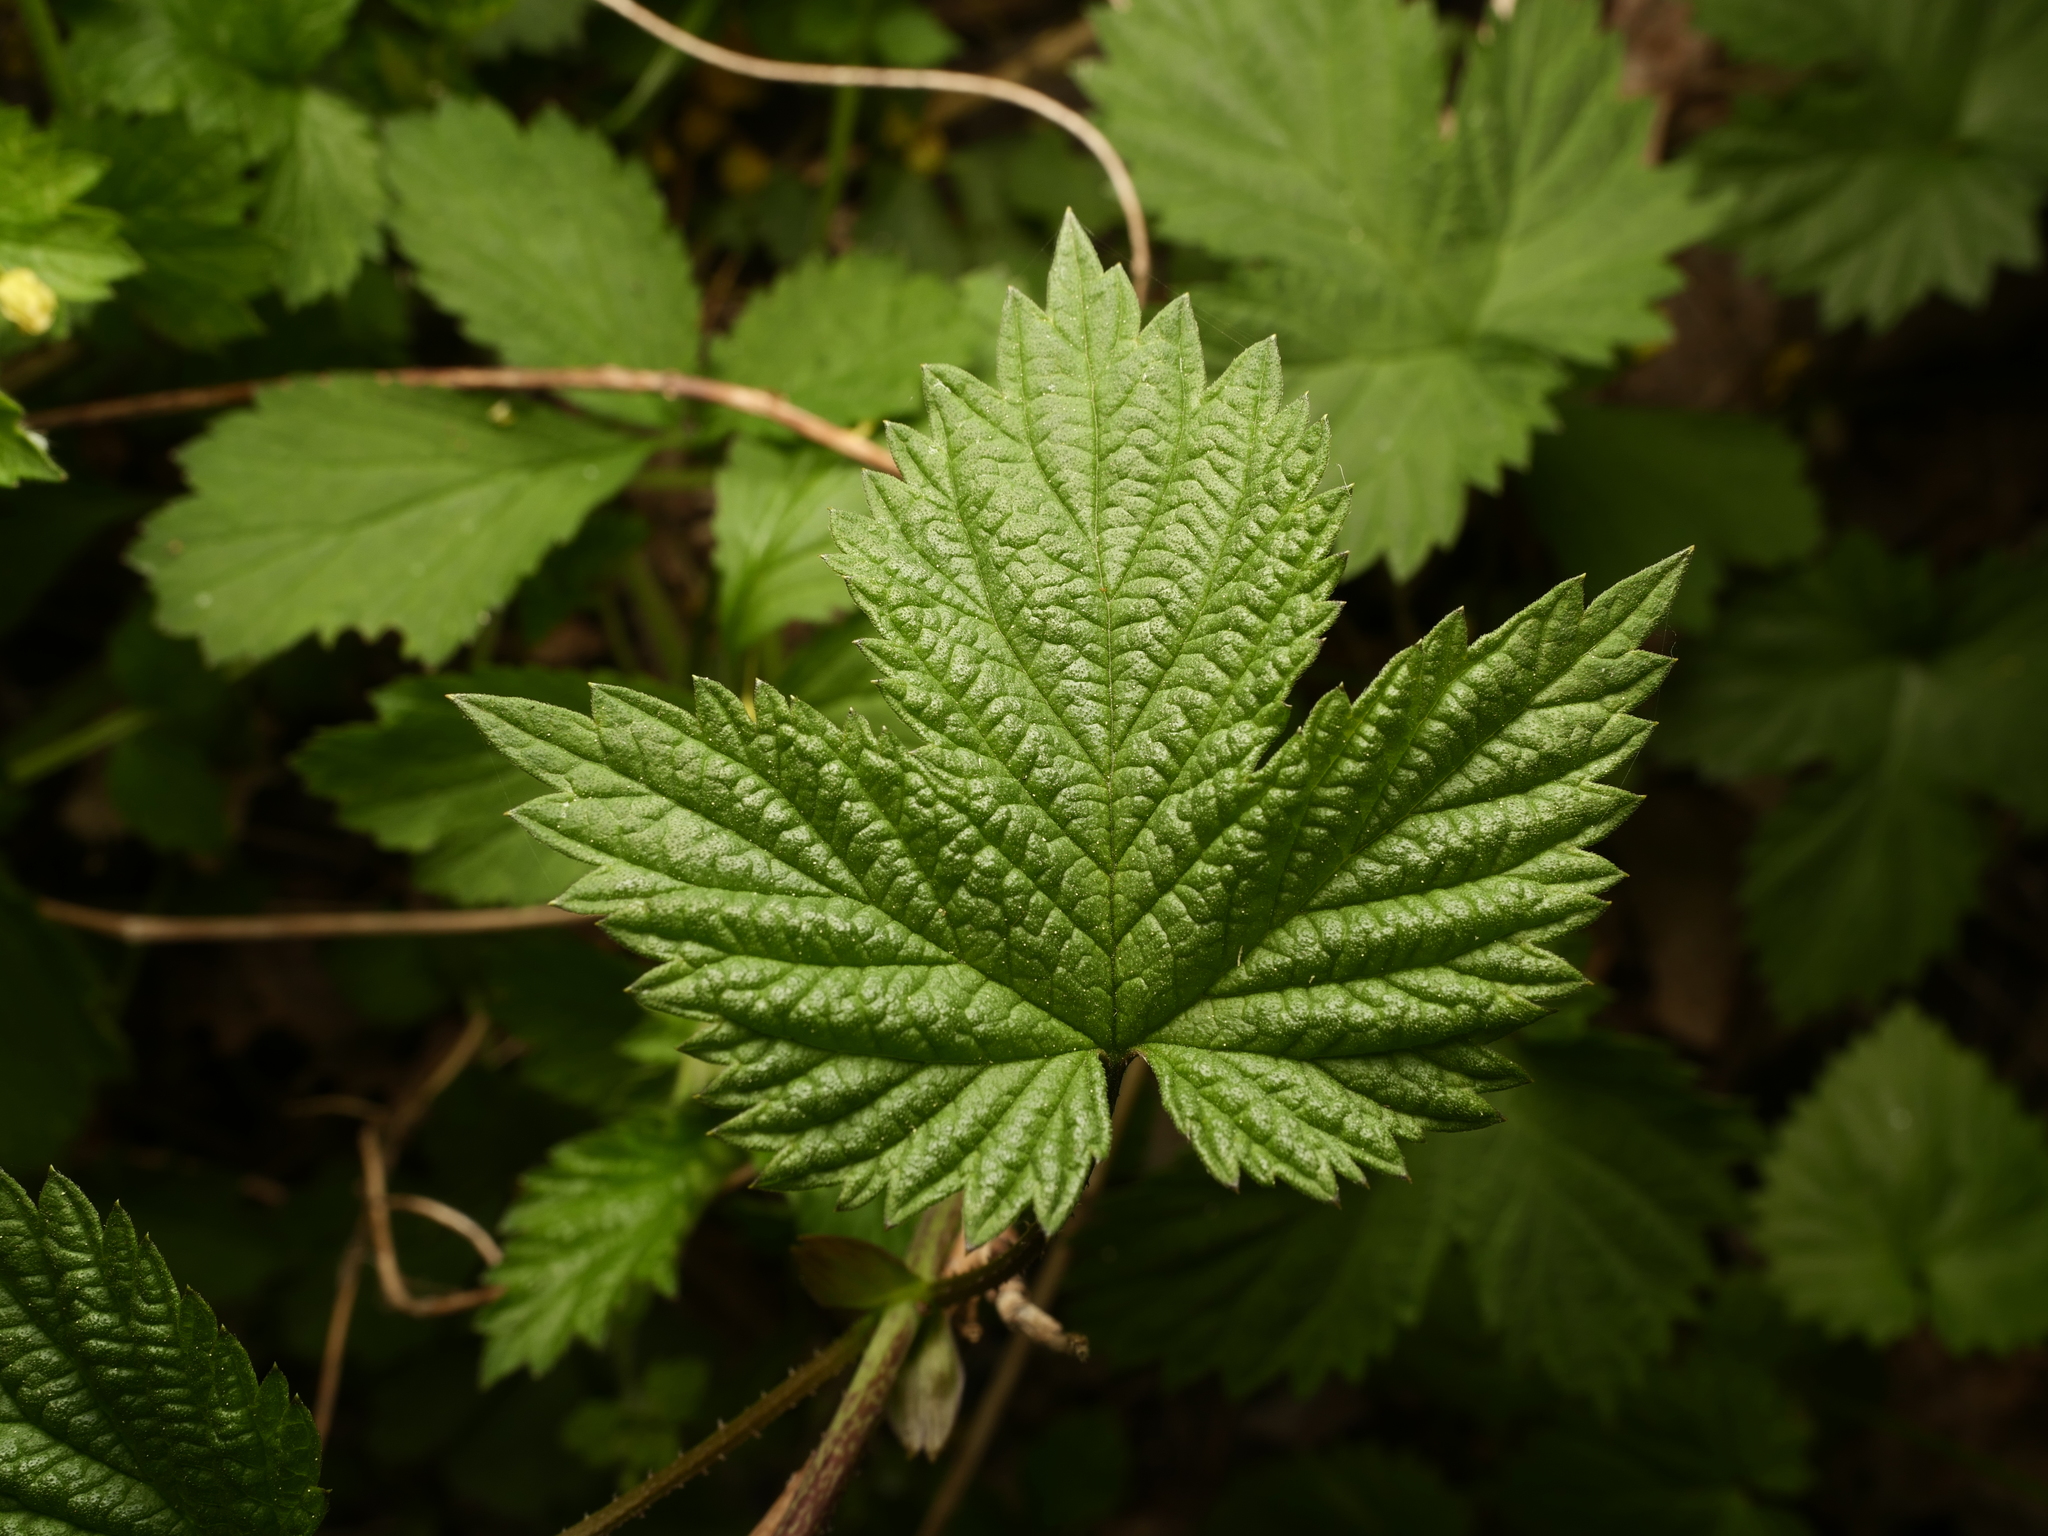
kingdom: Plantae
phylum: Tracheophyta
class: Magnoliopsida
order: Rosales
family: Cannabaceae
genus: Humulus
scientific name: Humulus lupulus
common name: Hop
